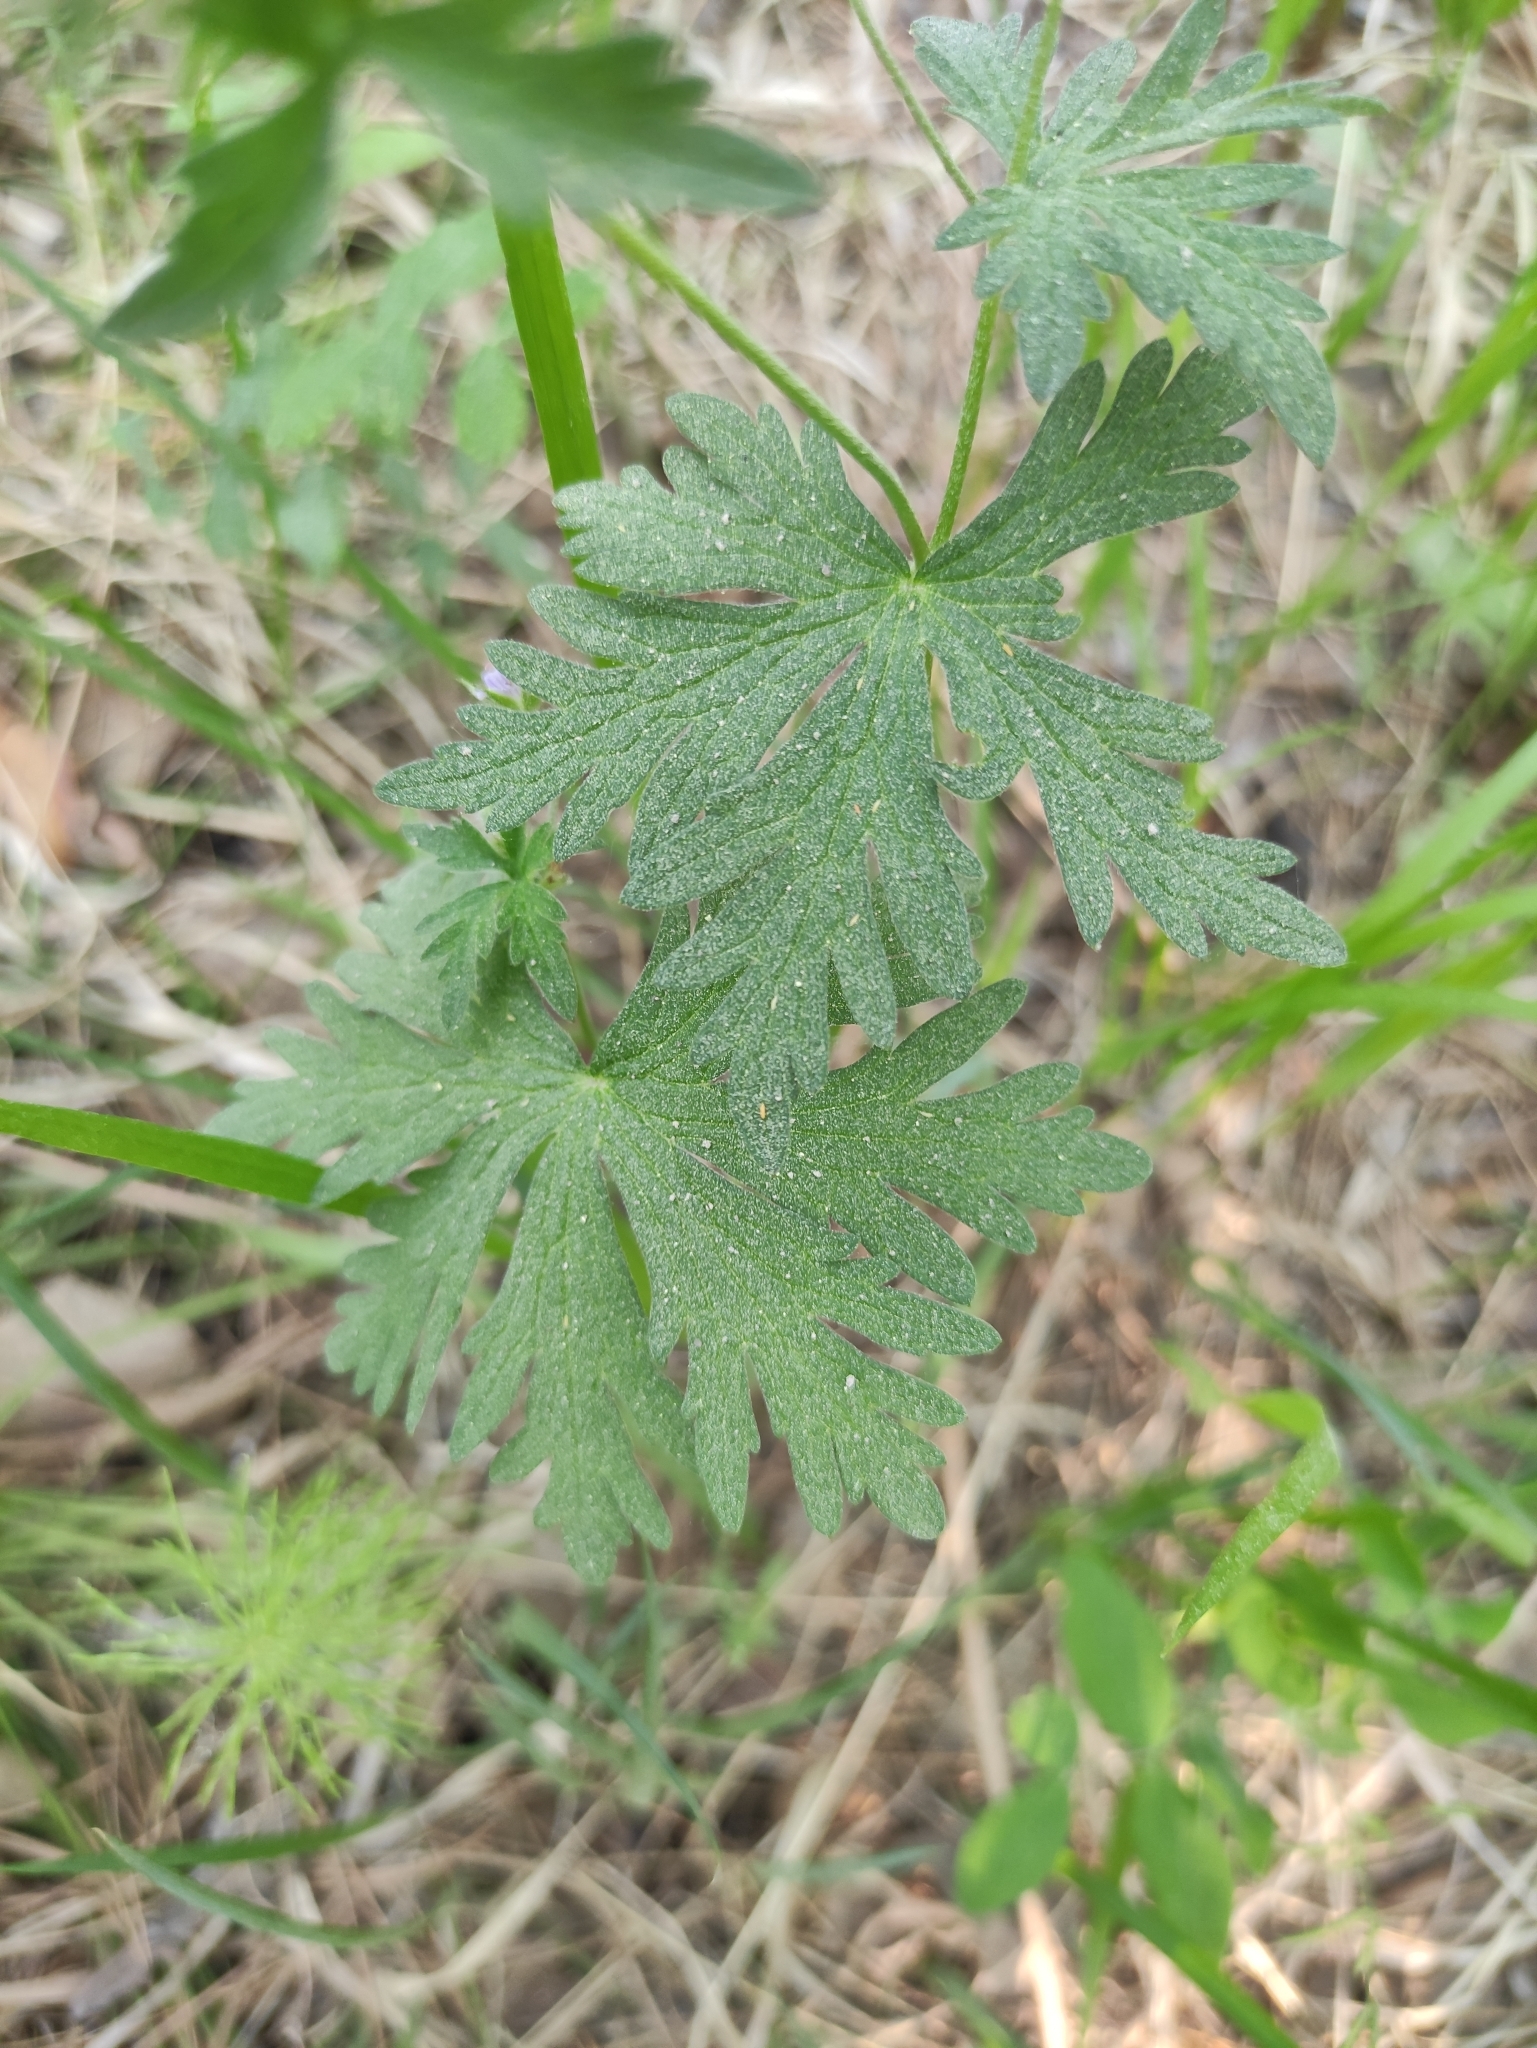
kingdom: Plantae
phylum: Tracheophyta
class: Magnoliopsida
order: Geraniales
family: Geraniaceae
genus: Geranium
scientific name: Geranium pseudosibiricum
